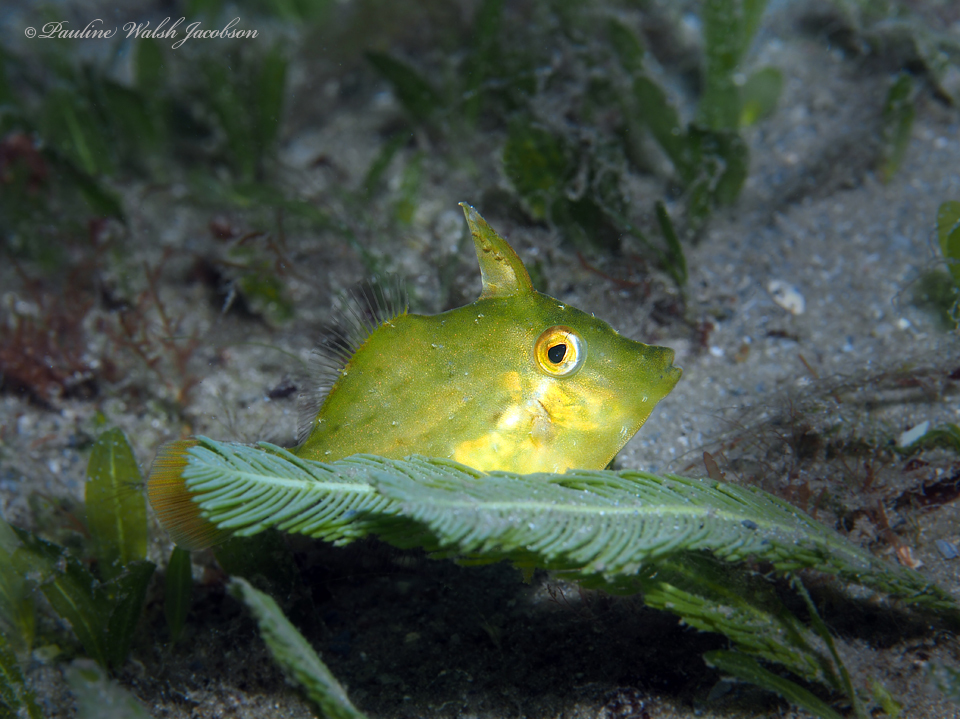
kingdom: Animalia
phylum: Chordata
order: Tetraodontiformes
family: Monacanthidae
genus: Monacanthus
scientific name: Monacanthus ciliatus
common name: Fringed filefish
